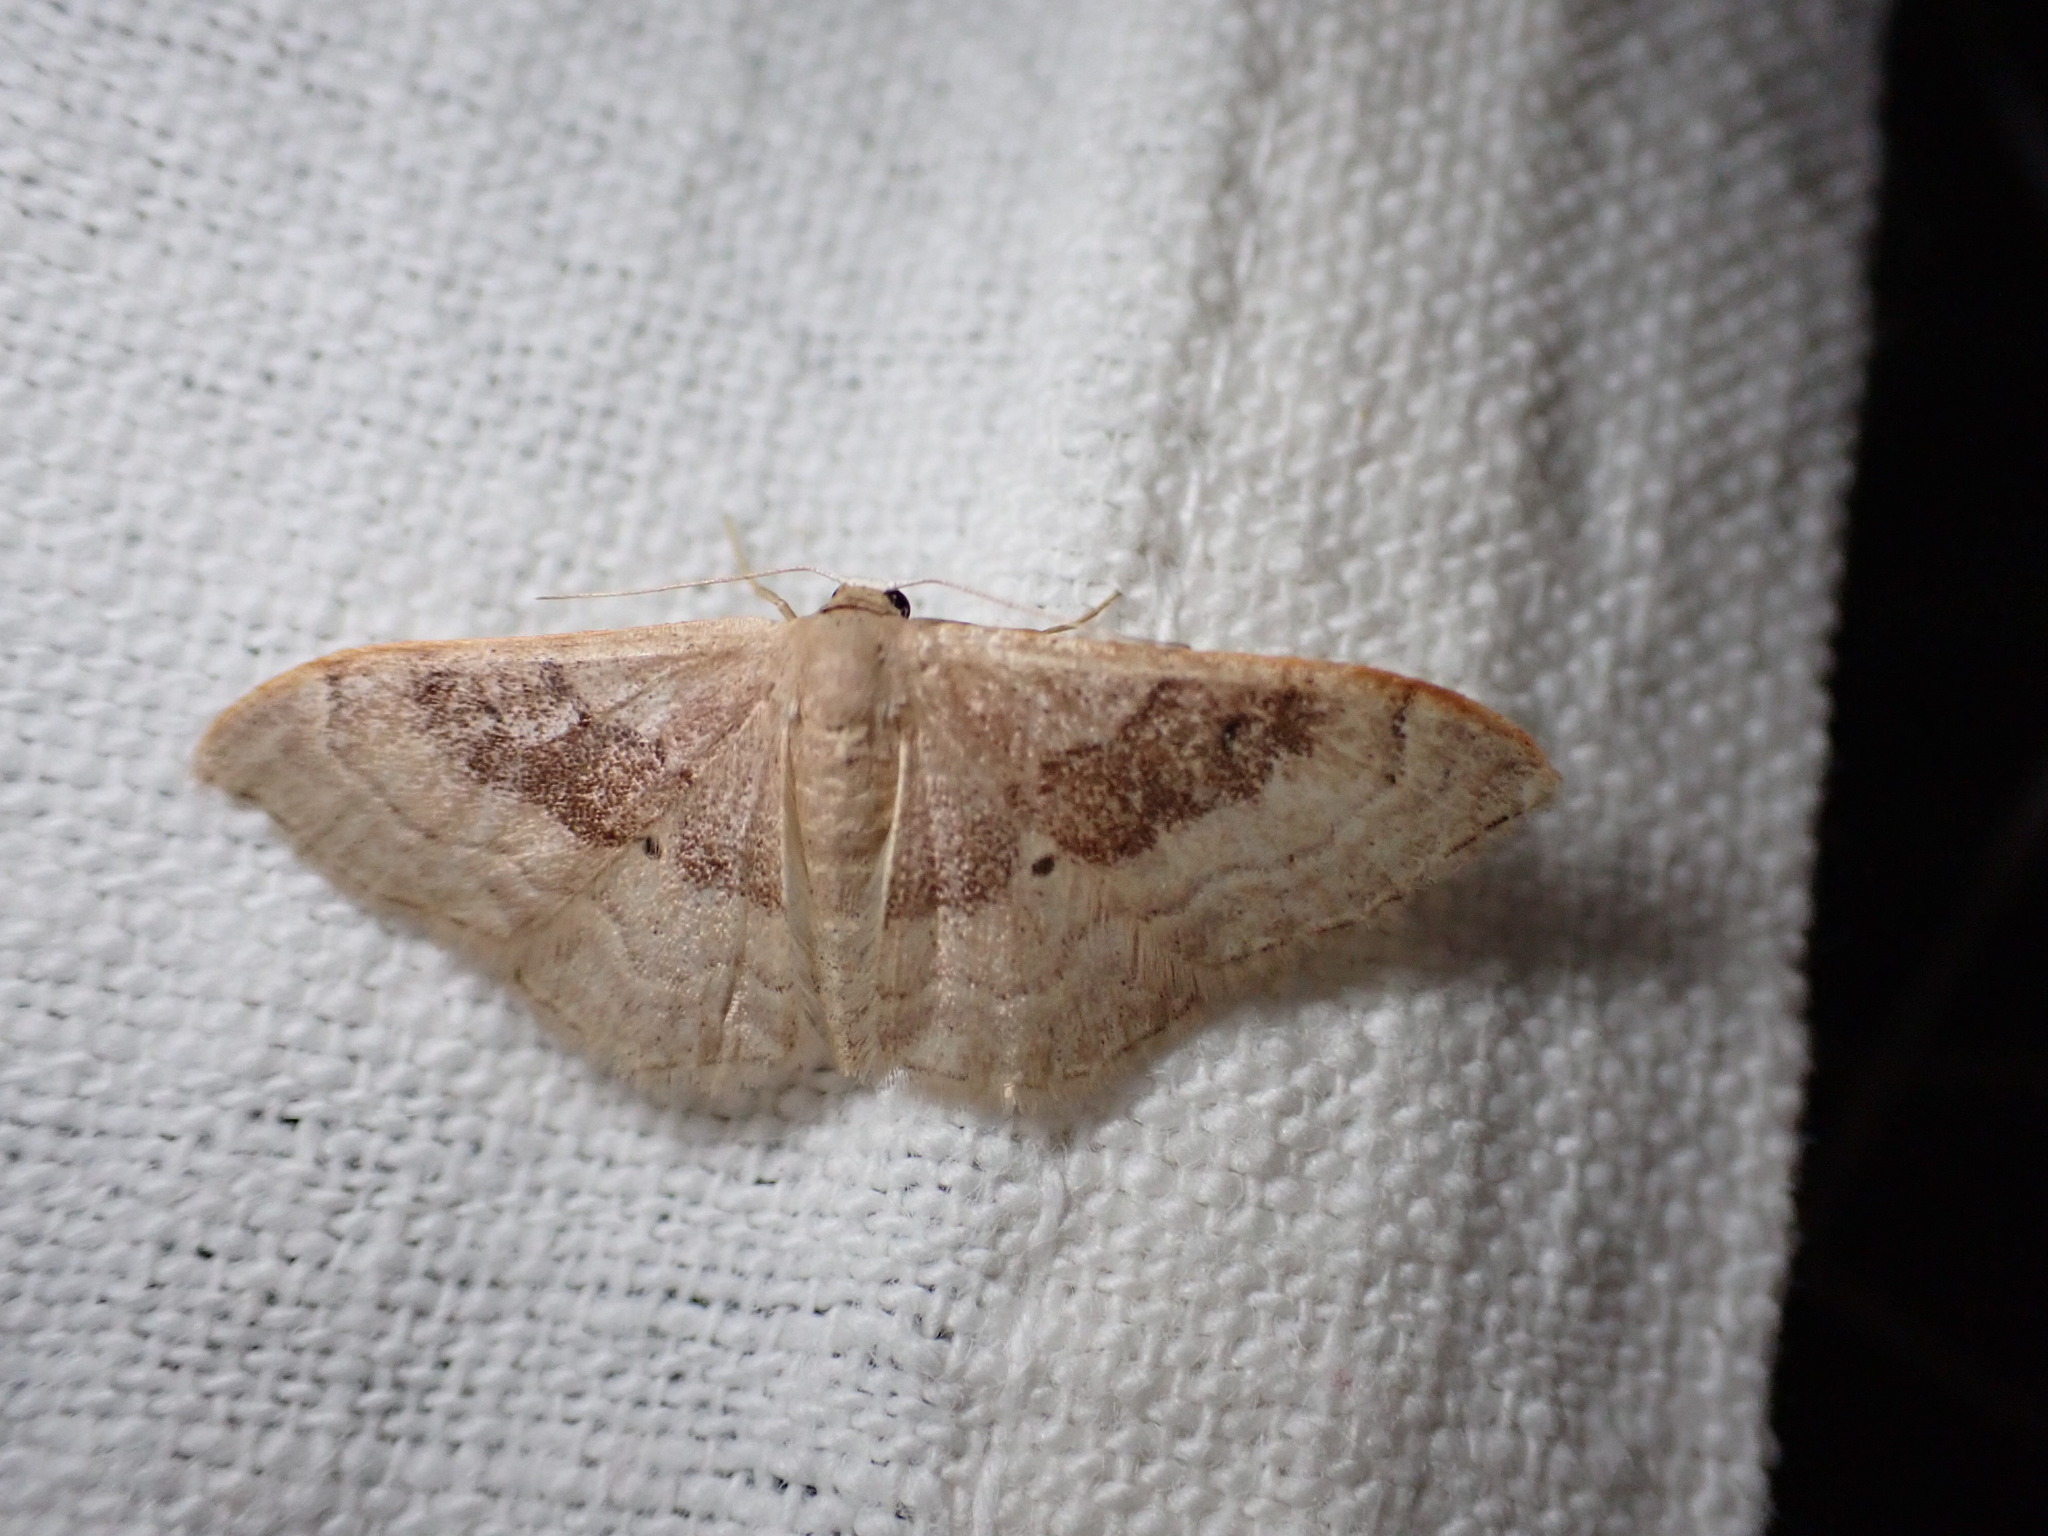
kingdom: Animalia
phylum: Arthropoda
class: Insecta
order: Lepidoptera
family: Geometridae
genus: Idaea
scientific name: Idaea degeneraria
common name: Portland ribbon wave
